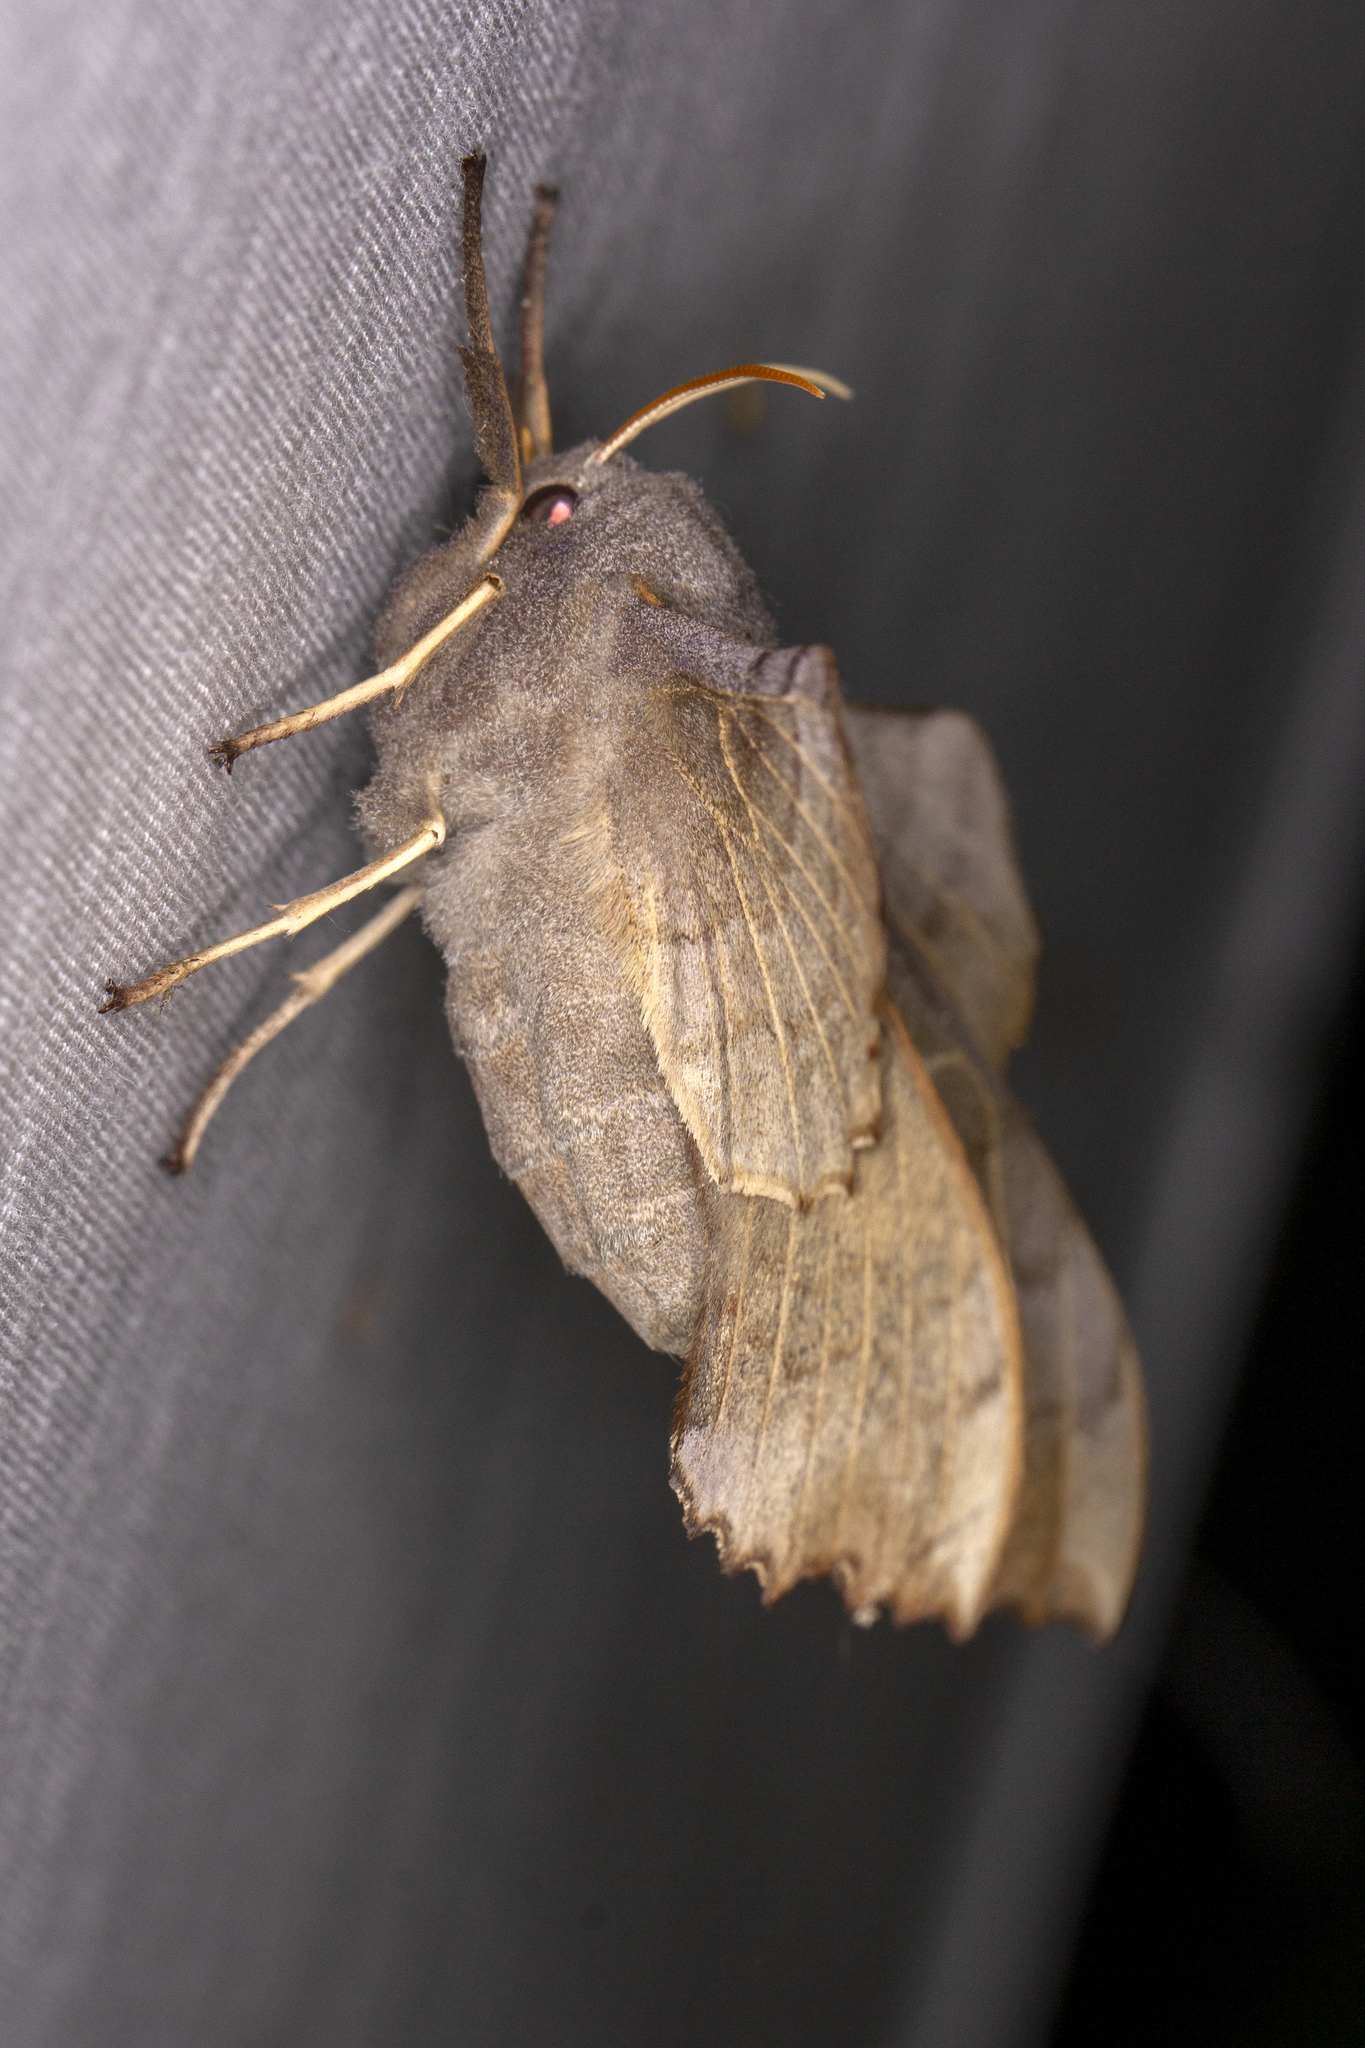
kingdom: Animalia
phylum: Arthropoda
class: Insecta
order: Lepidoptera
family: Sphingidae
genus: Laothoe
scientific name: Laothoe populi
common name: Poplar hawk-moth
